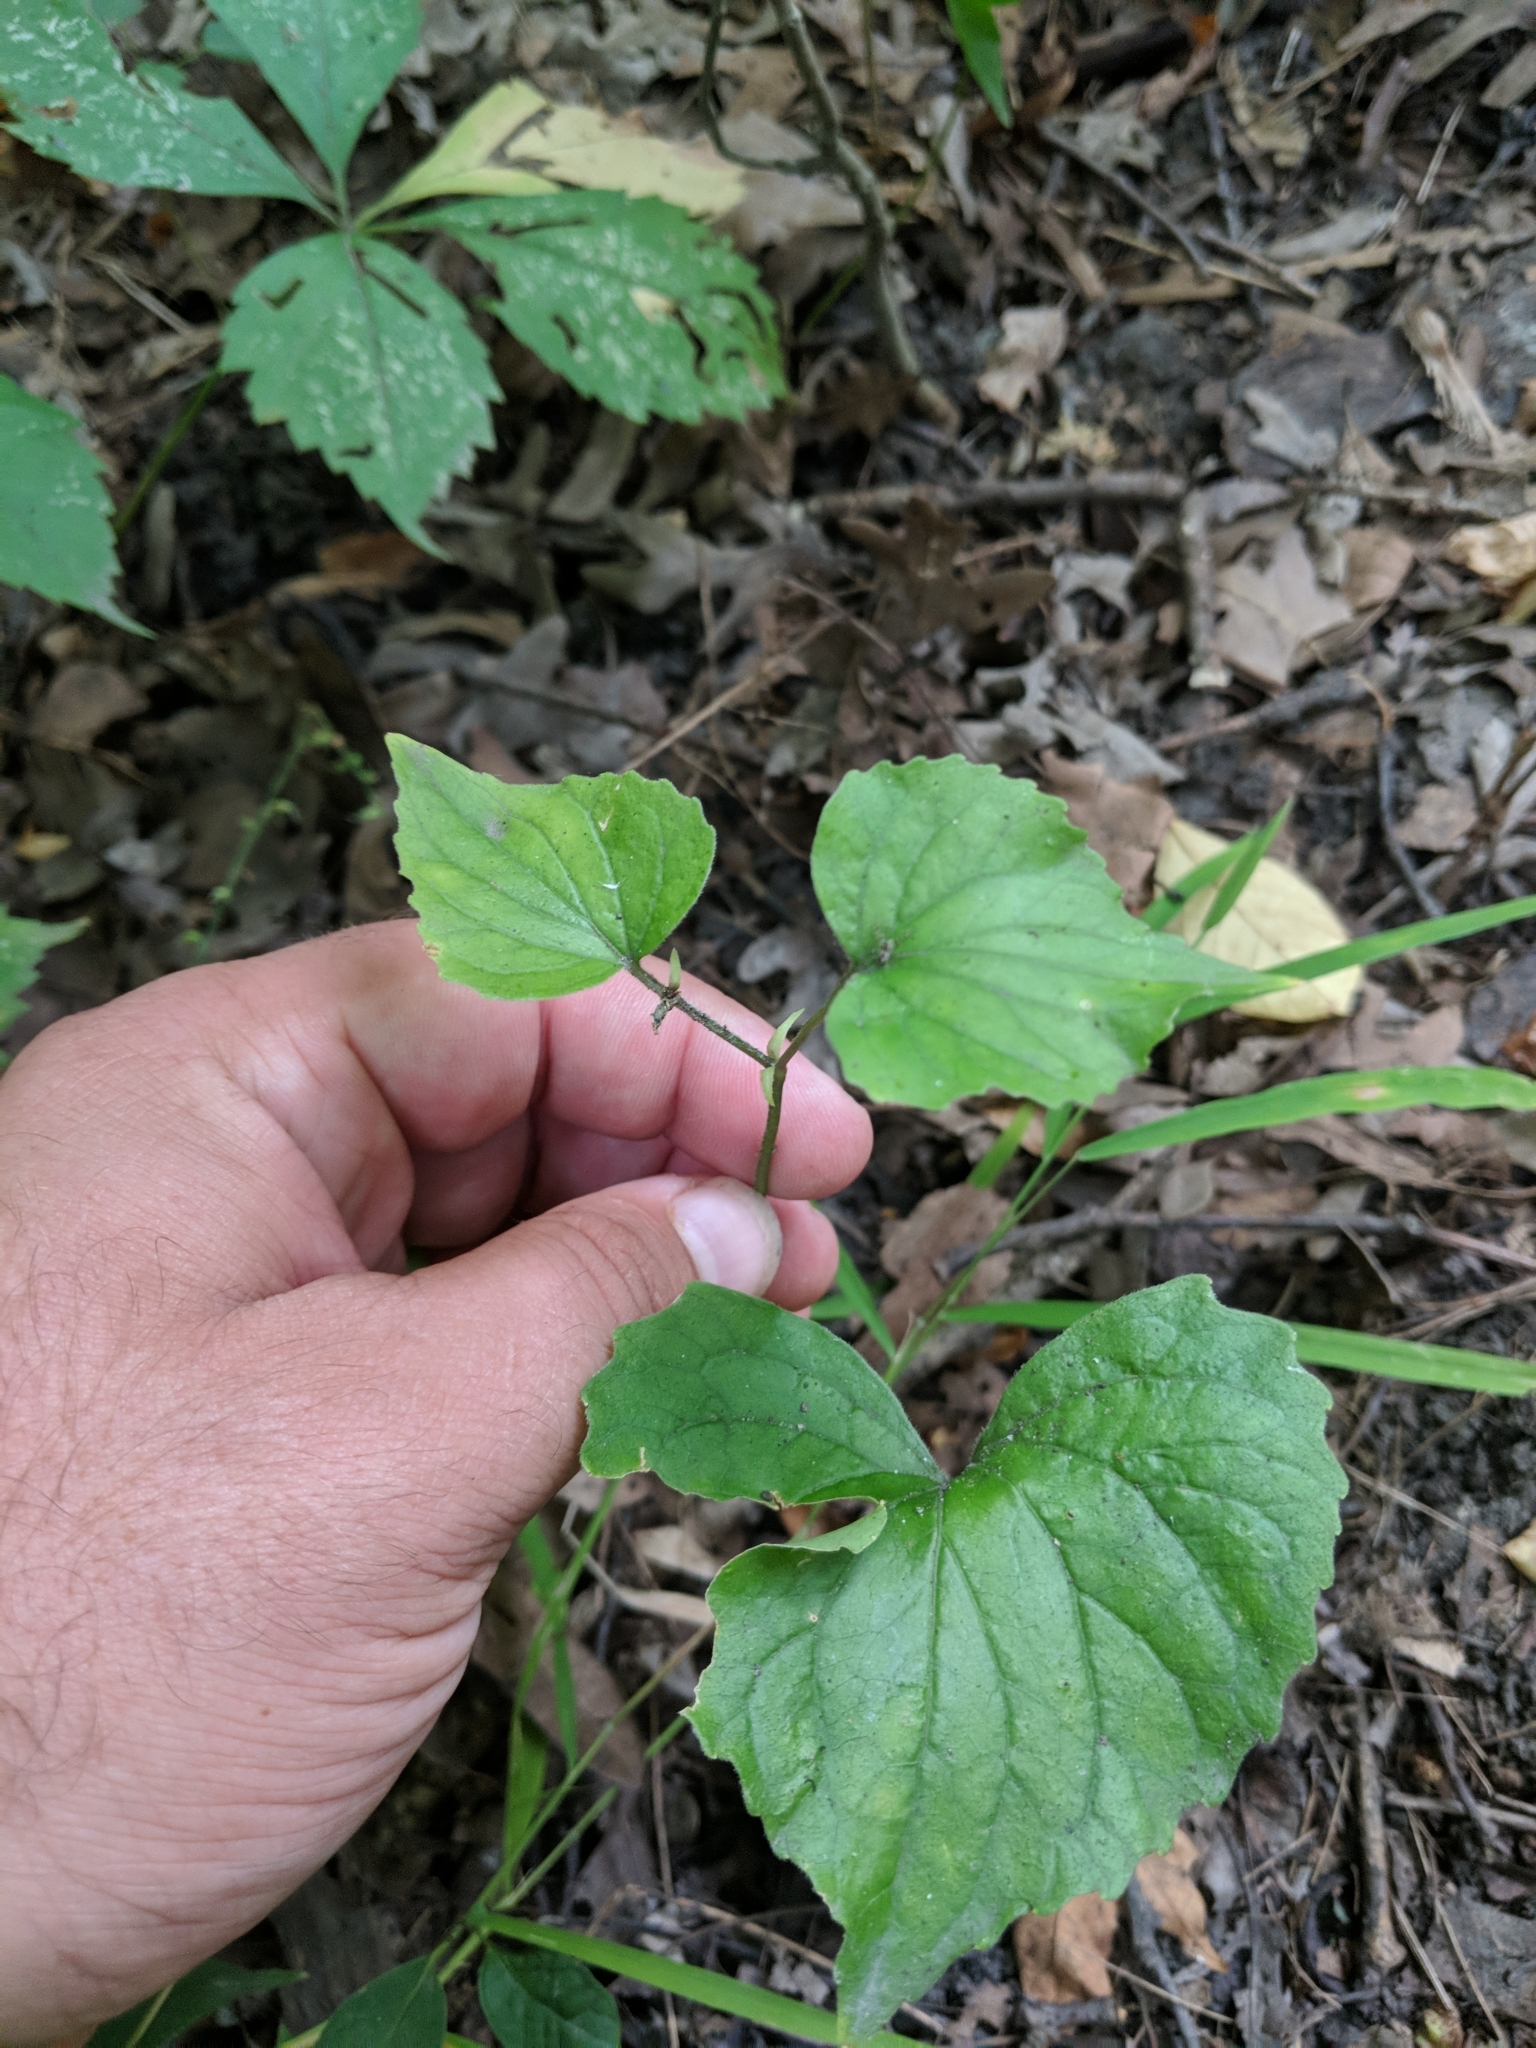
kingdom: Plantae
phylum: Tracheophyta
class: Magnoliopsida
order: Malpighiales
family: Violaceae
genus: Viola
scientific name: Viola eriocarpa
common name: Smooth yellow violet
